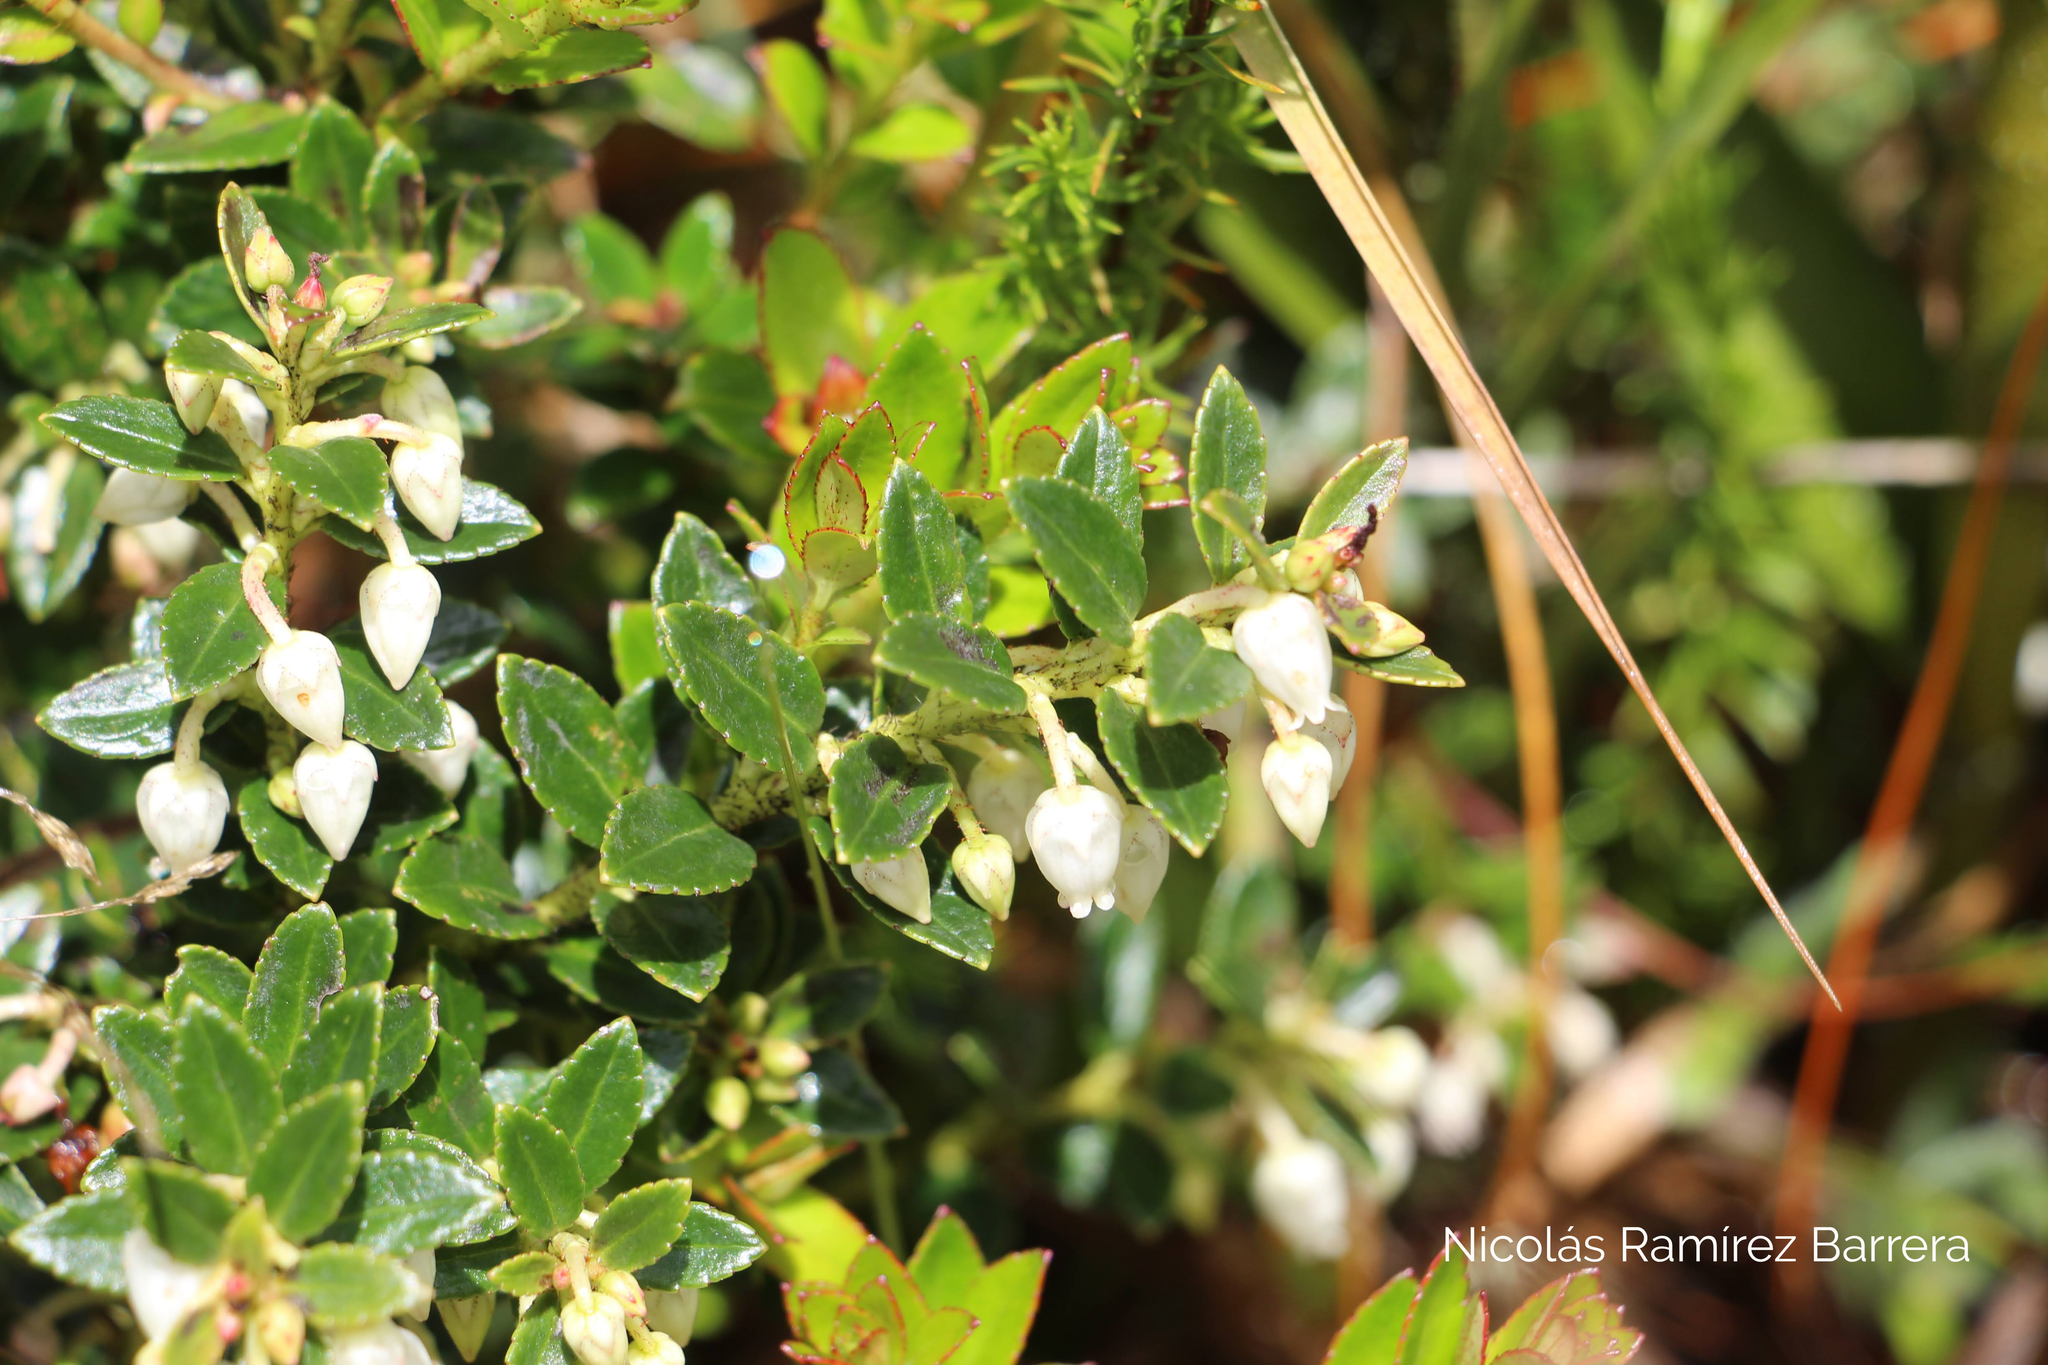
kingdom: Plantae
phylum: Tracheophyta
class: Magnoliopsida
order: Ericales
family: Ericaceae
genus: Gaultheria
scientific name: Gaultheria myrsinoides
